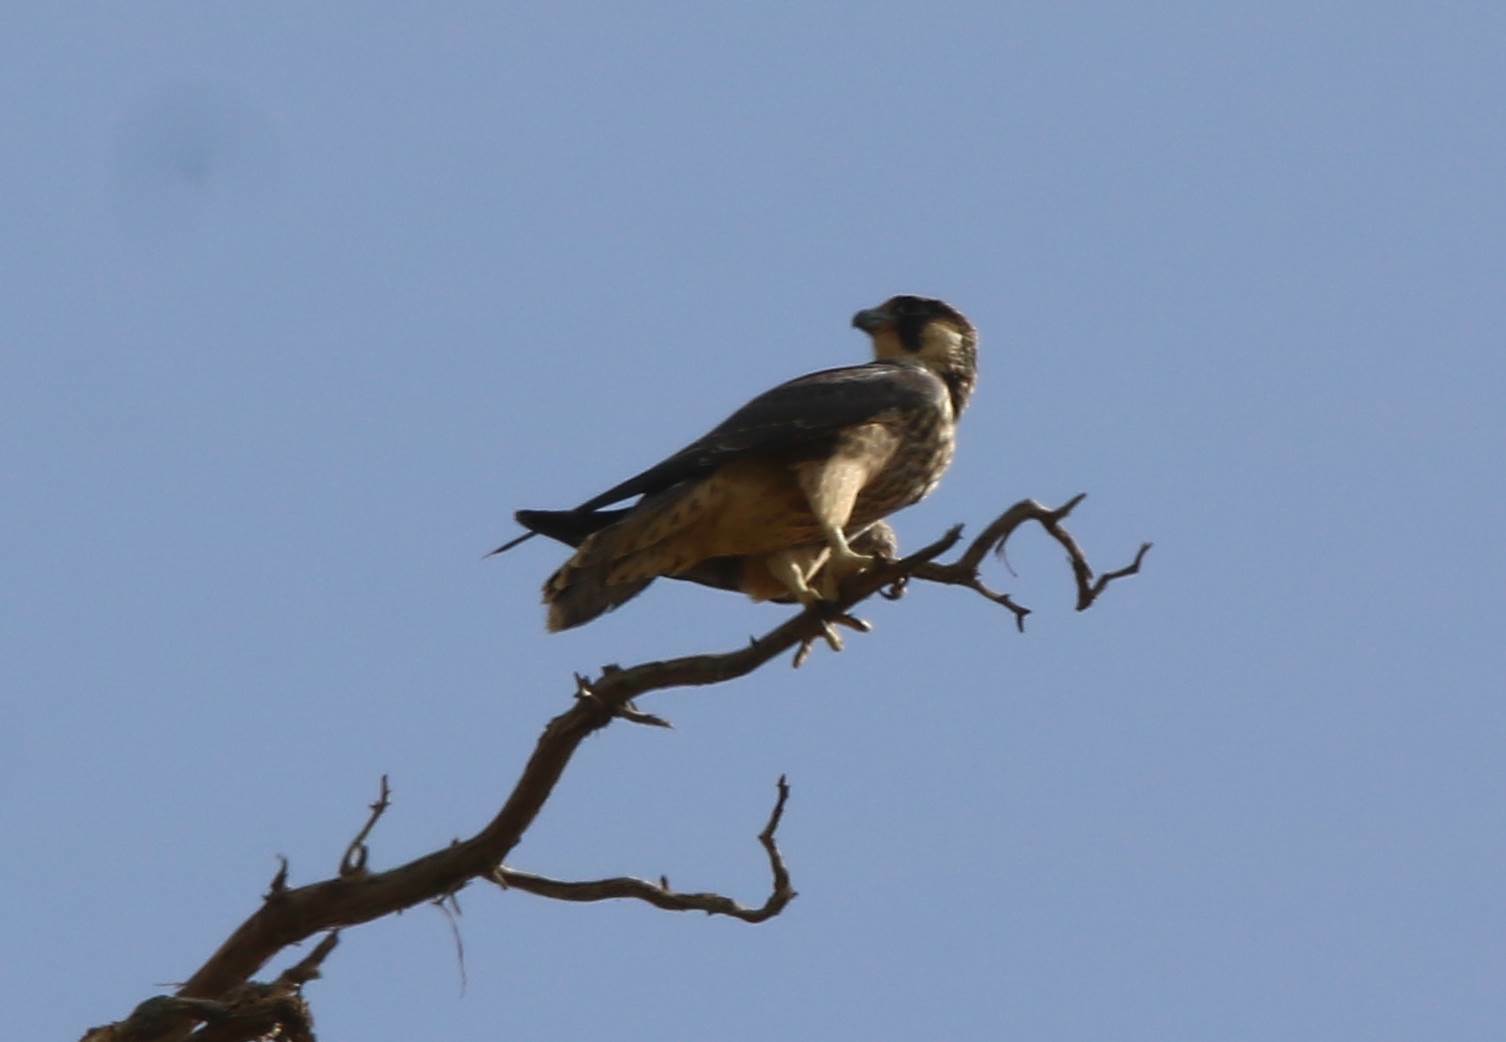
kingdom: Animalia
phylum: Chordata
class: Aves
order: Falconiformes
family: Falconidae
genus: Falco
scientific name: Falco peregrinus
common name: Peregrine falcon
